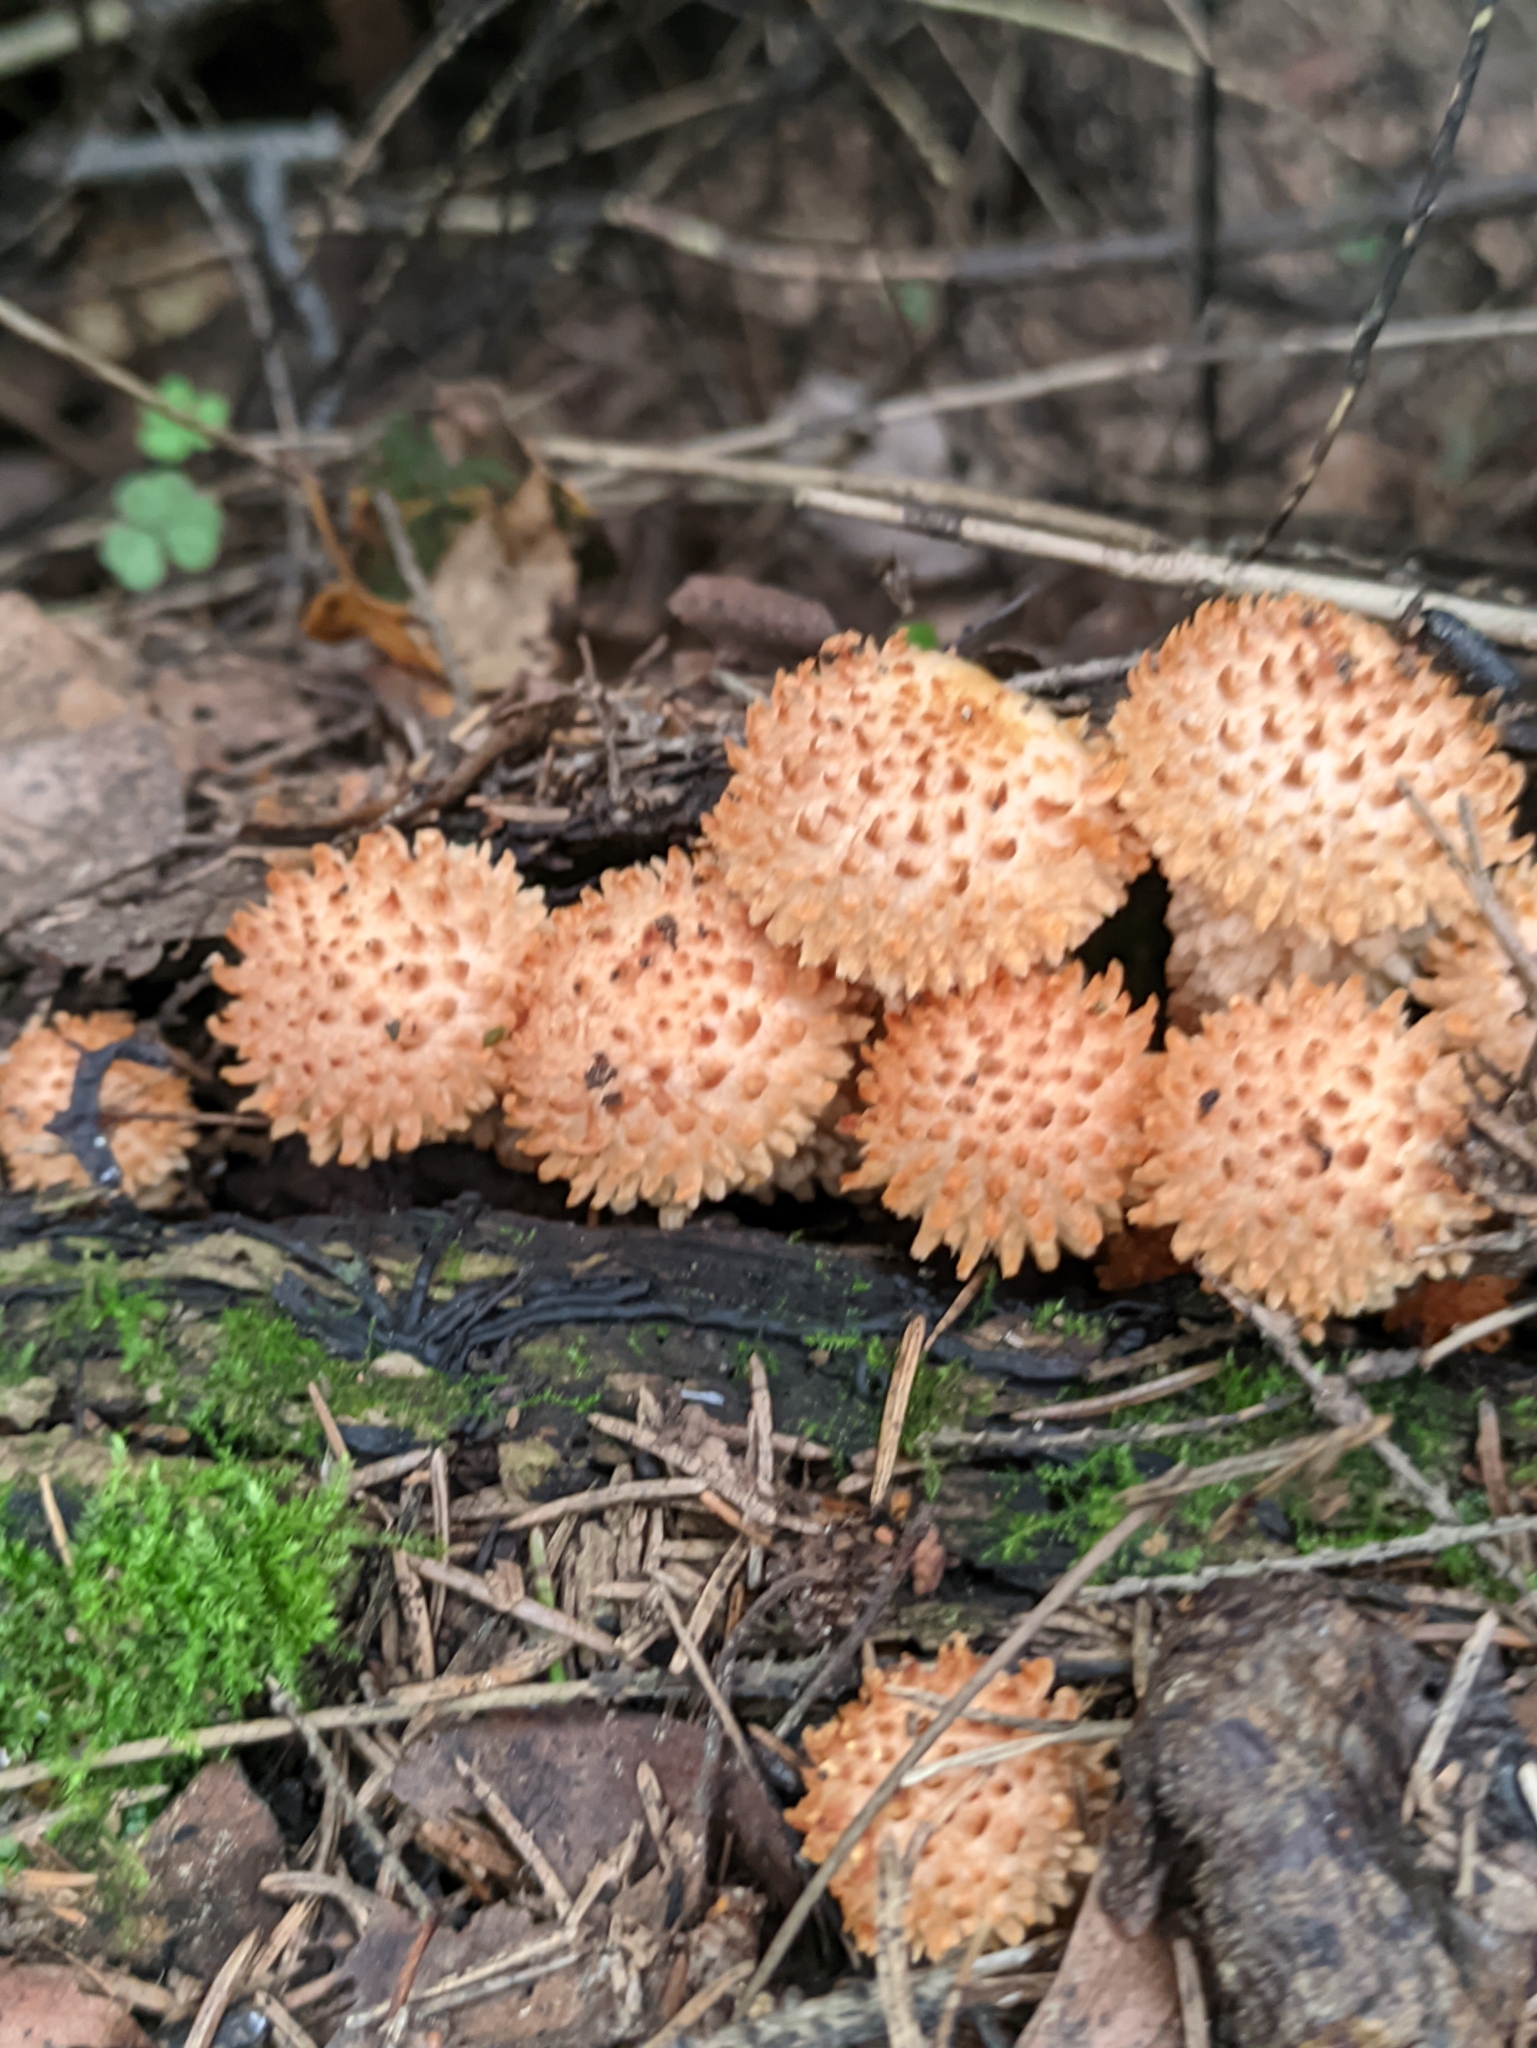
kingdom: Fungi
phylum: Basidiomycota
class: Agaricomycetes
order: Agaricales
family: Strophariaceae
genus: Pholiota
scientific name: Pholiota squarrosa
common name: Shaggy pholiota
